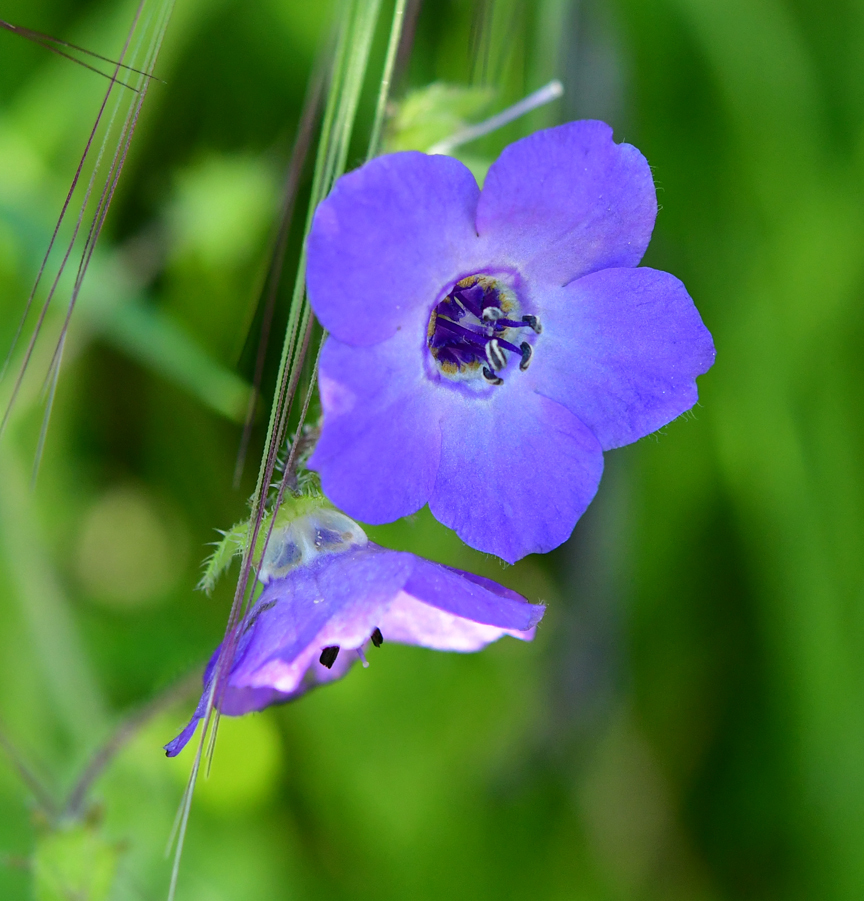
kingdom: Plantae
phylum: Tracheophyta
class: Magnoliopsida
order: Boraginales
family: Hydrophyllaceae
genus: Pholistoma
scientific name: Pholistoma auritum
